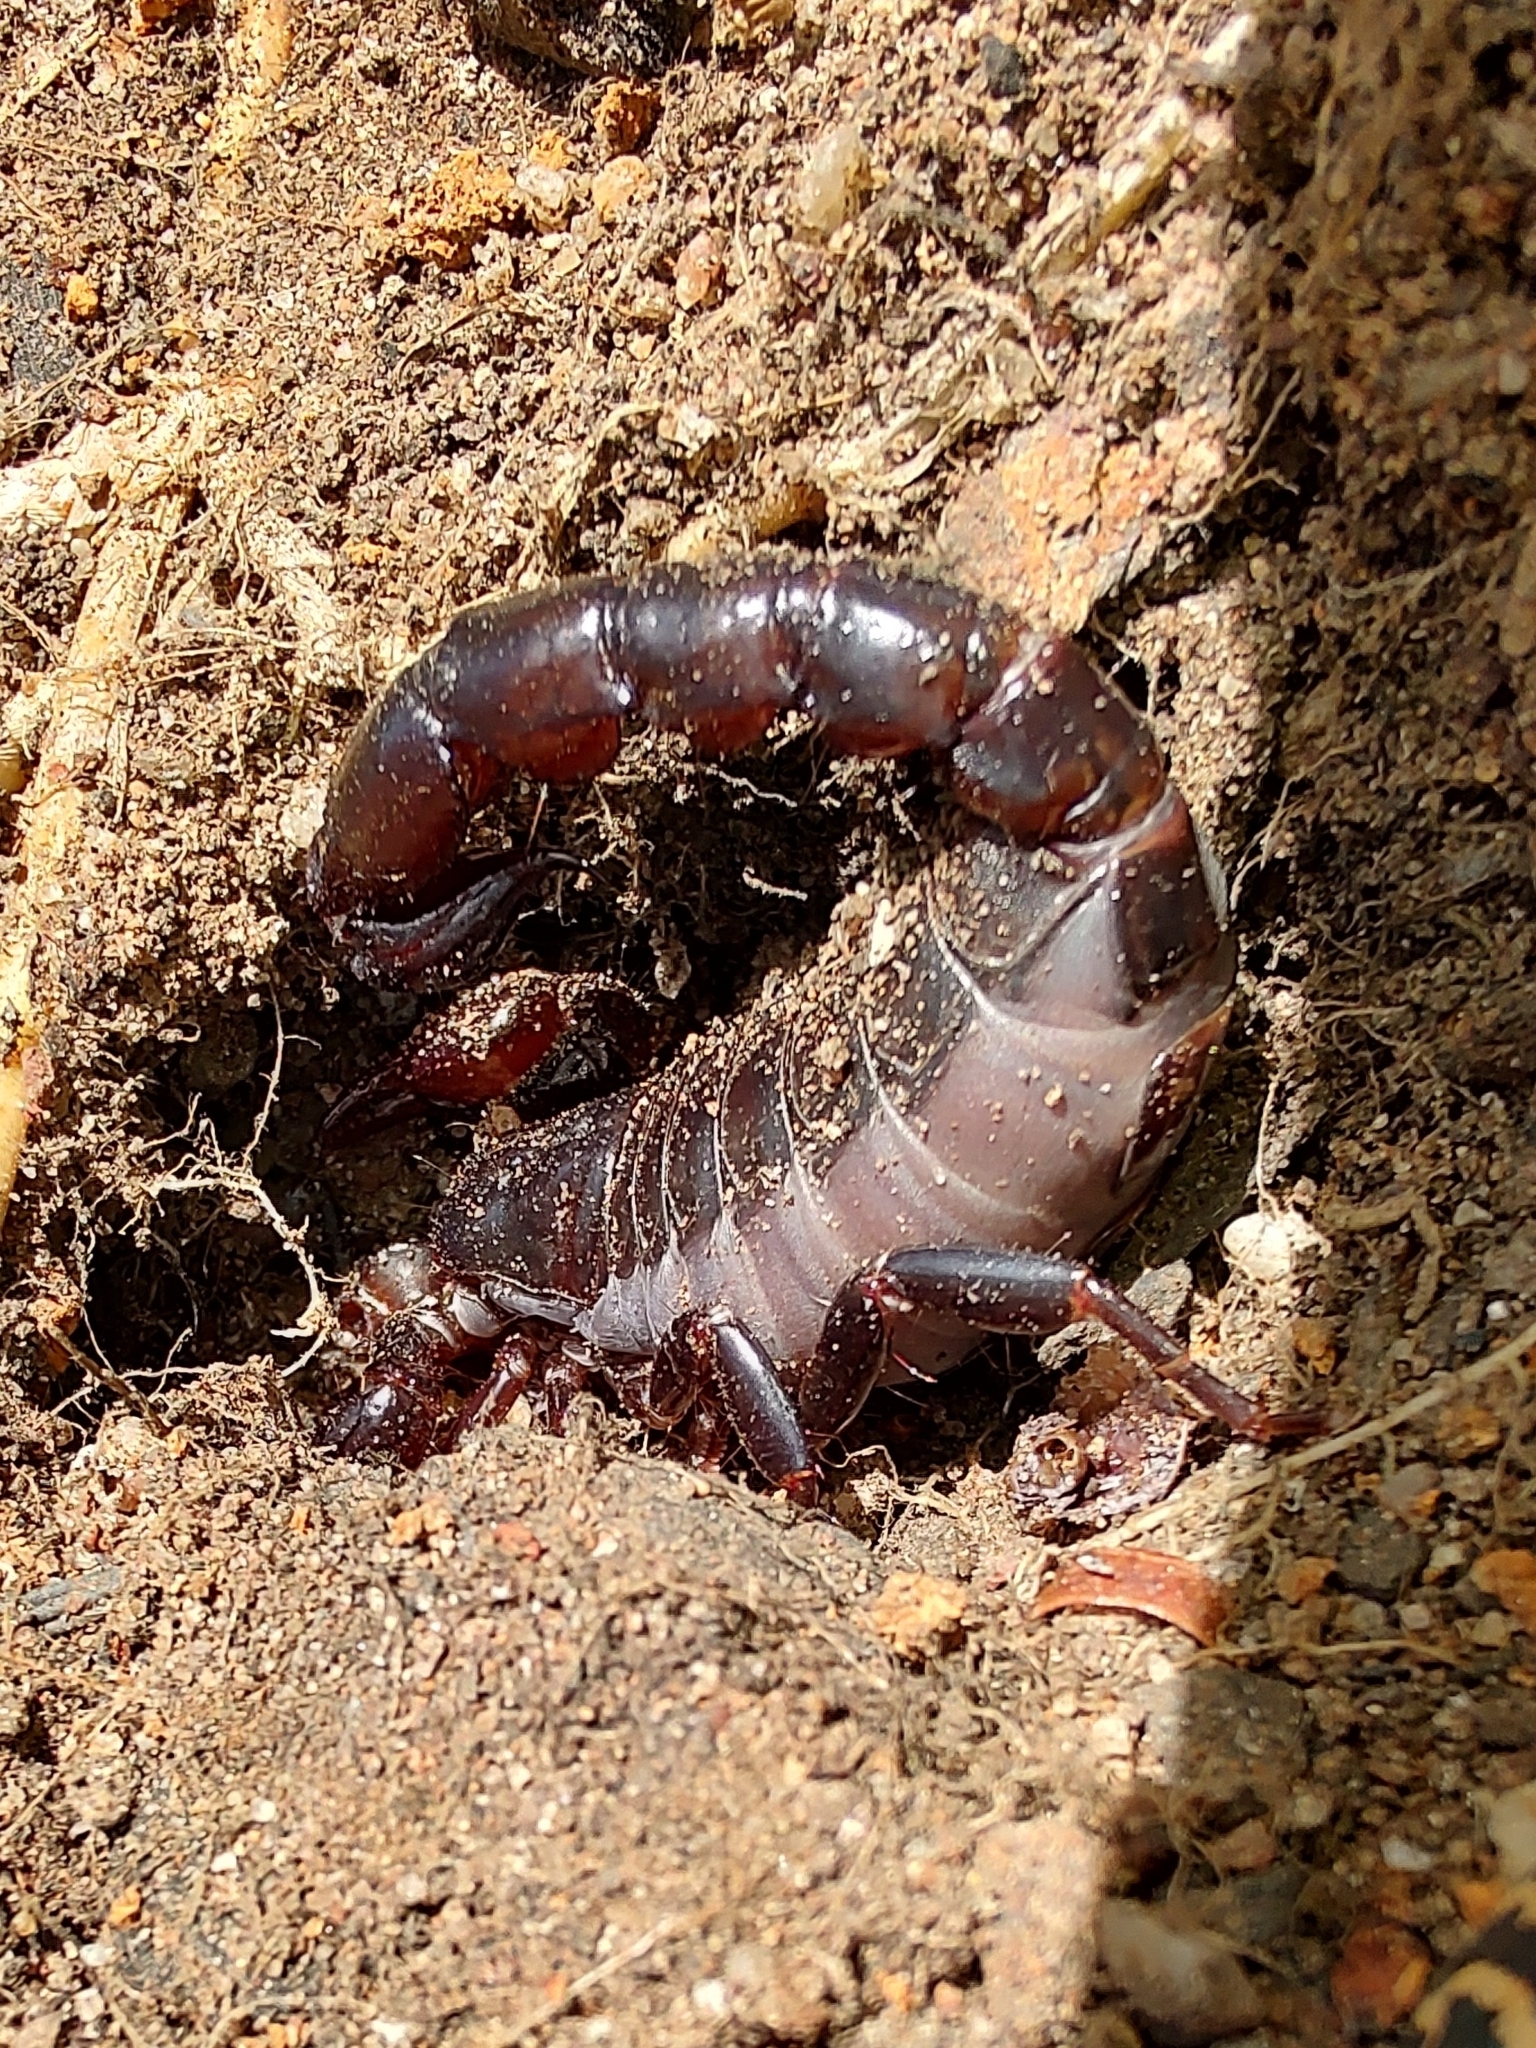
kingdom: Animalia
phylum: Arthropoda
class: Arachnida
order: Scorpiones
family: Bothriuridae
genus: Bothriurus
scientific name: Bothriurus bonariensis
